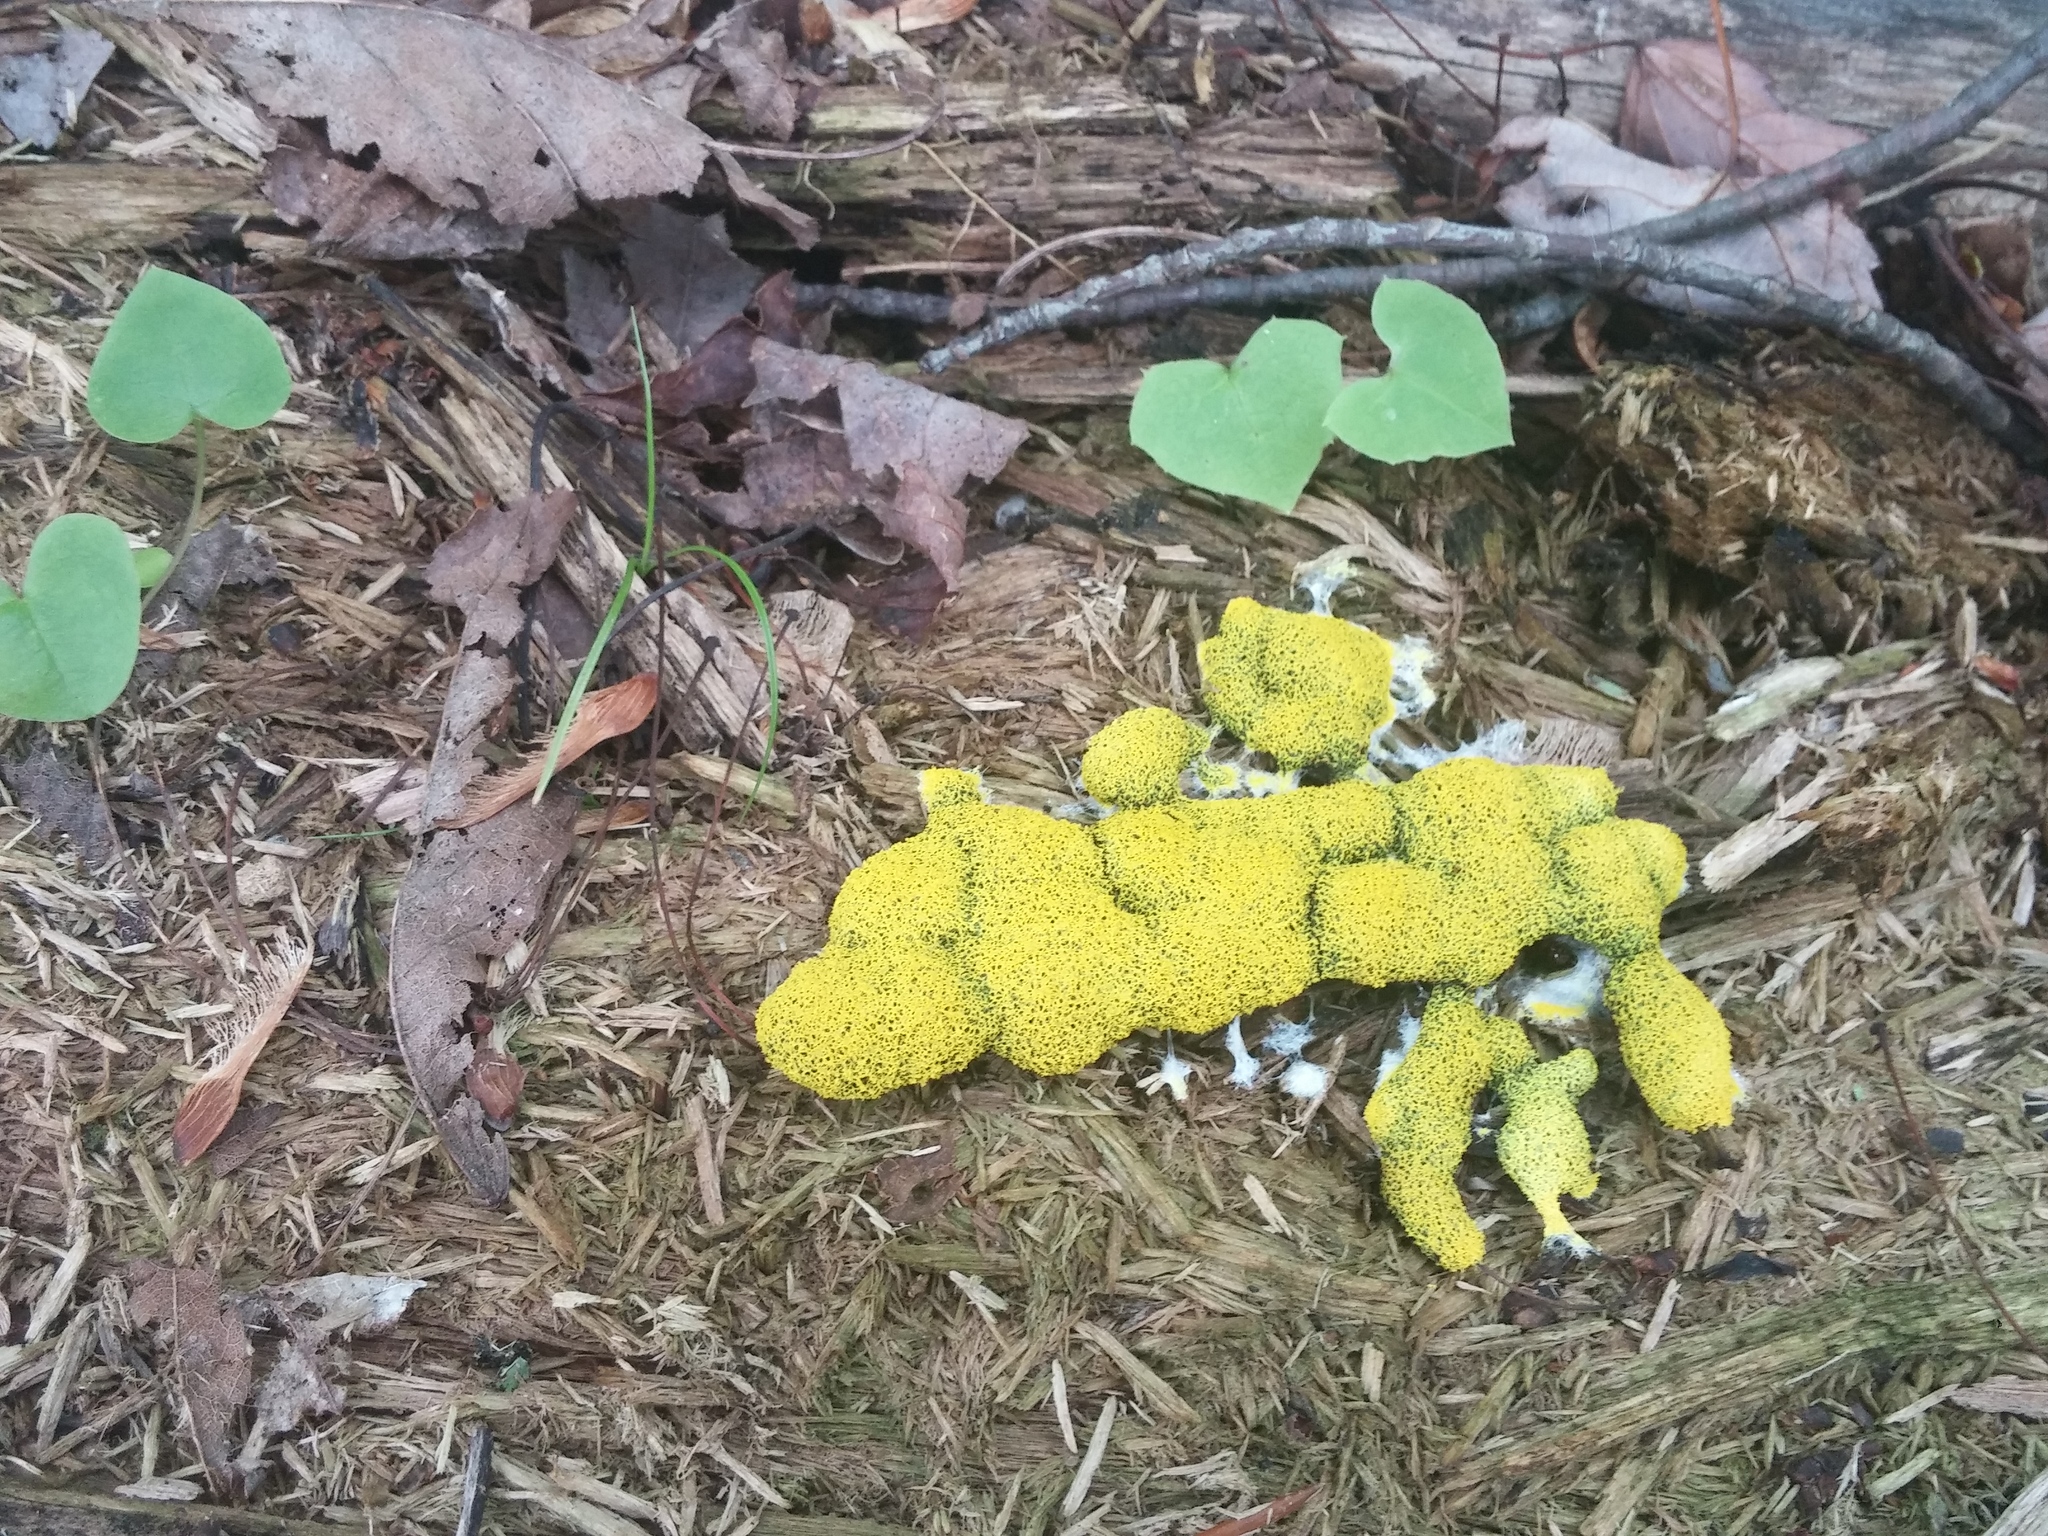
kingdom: Protozoa
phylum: Mycetozoa
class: Myxomycetes
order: Physarales
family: Physaraceae
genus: Fuligo
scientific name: Fuligo septica
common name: Dog vomit slime mold
